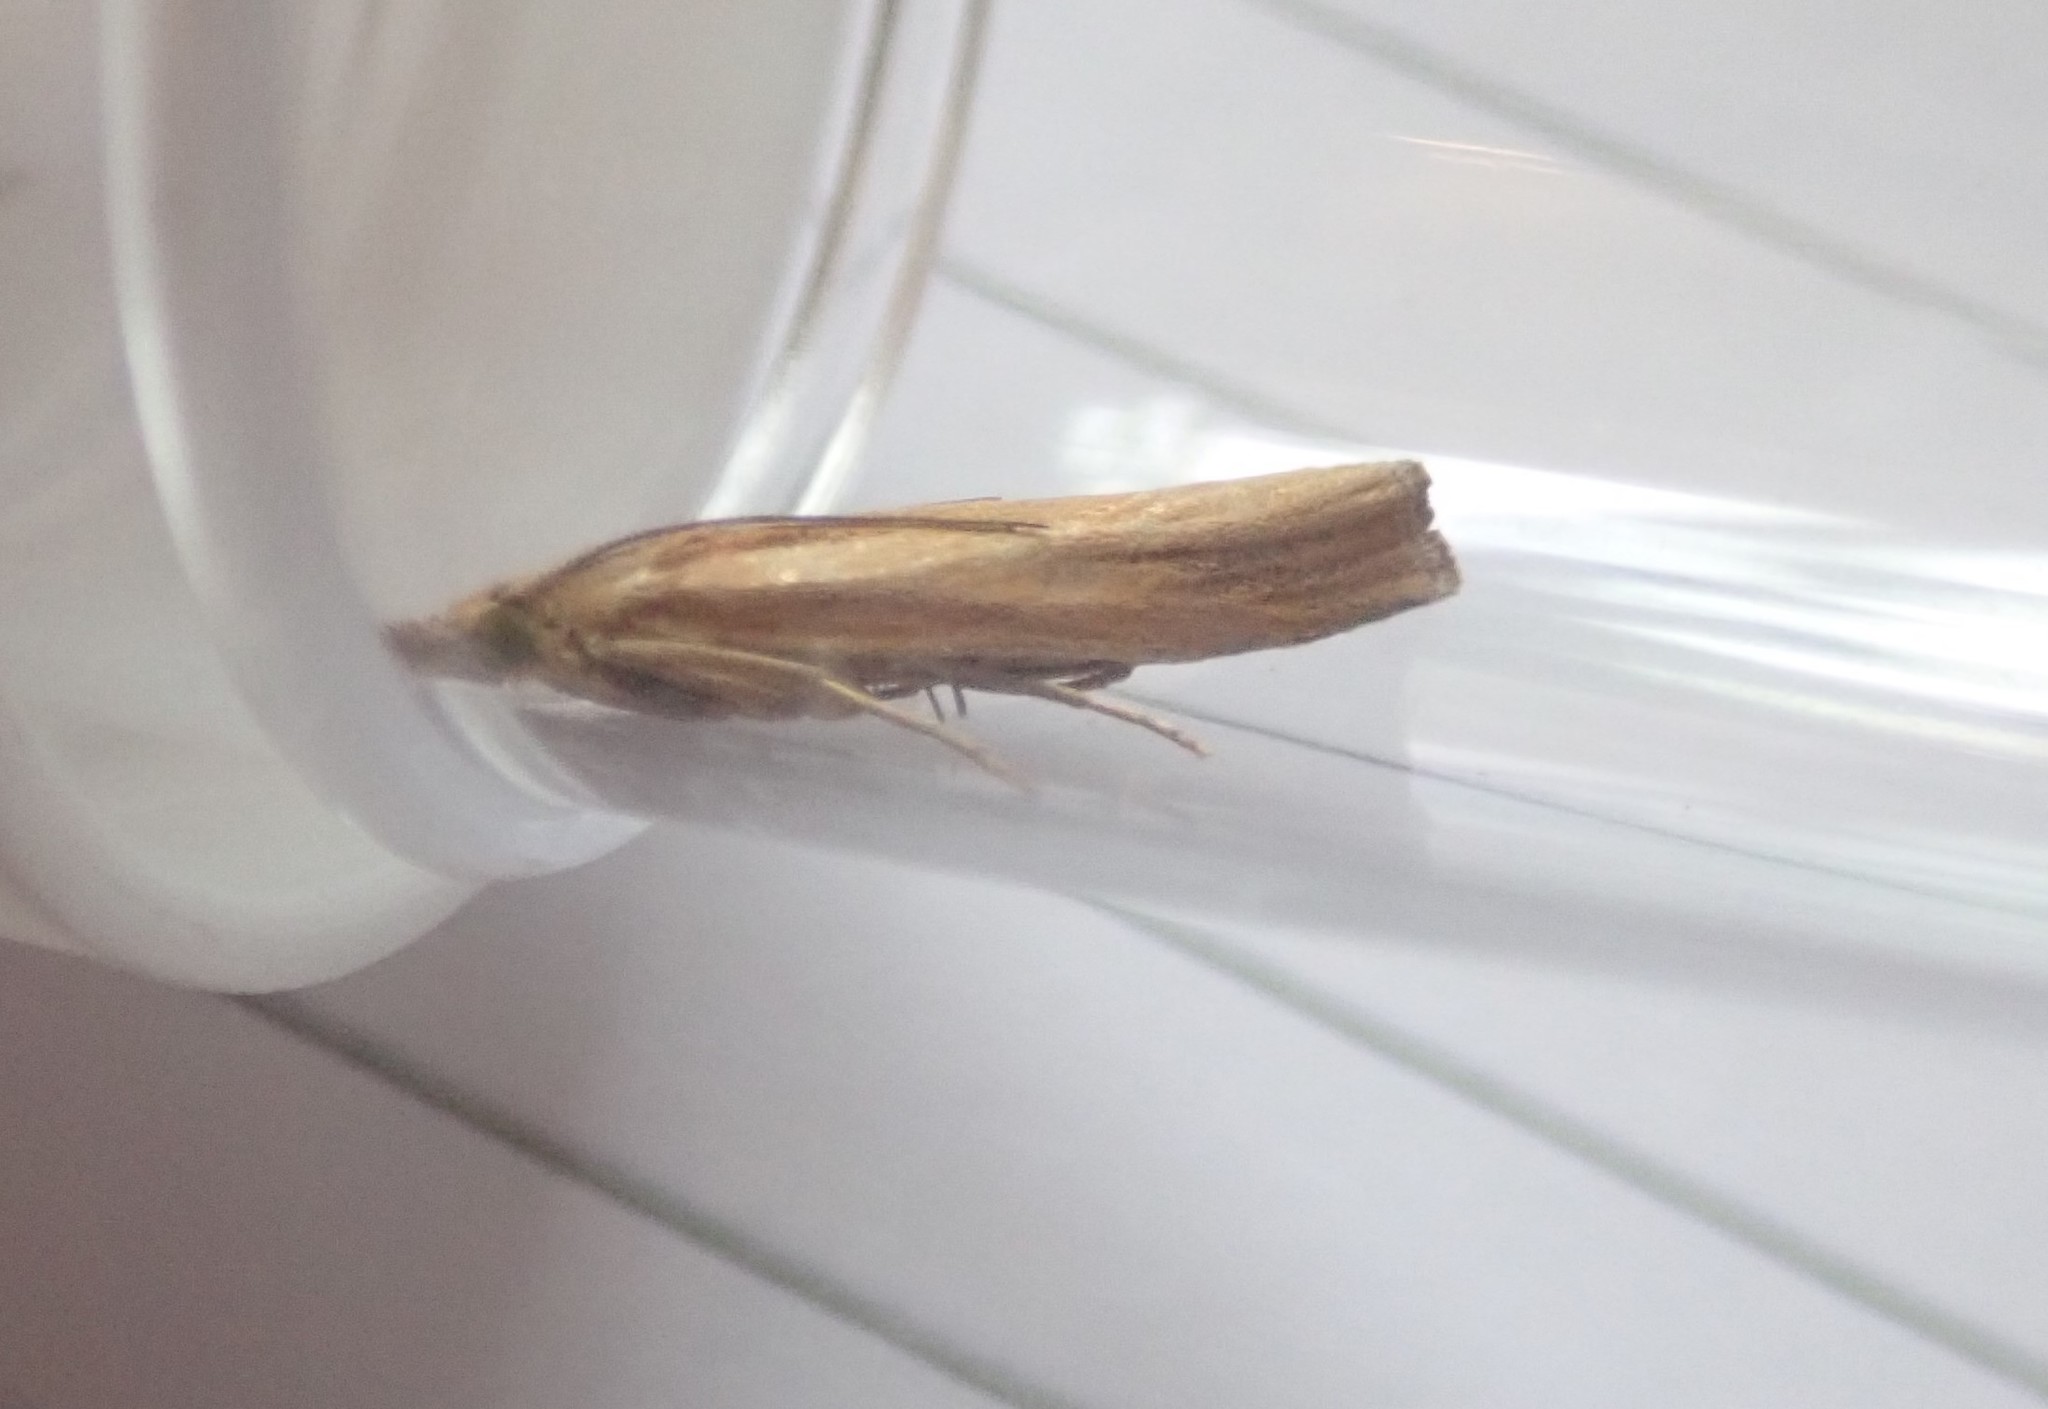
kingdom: Animalia
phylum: Arthropoda
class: Insecta
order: Lepidoptera
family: Crambidae
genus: Agriphila
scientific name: Agriphila tristellus
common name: Common grass-veneer
